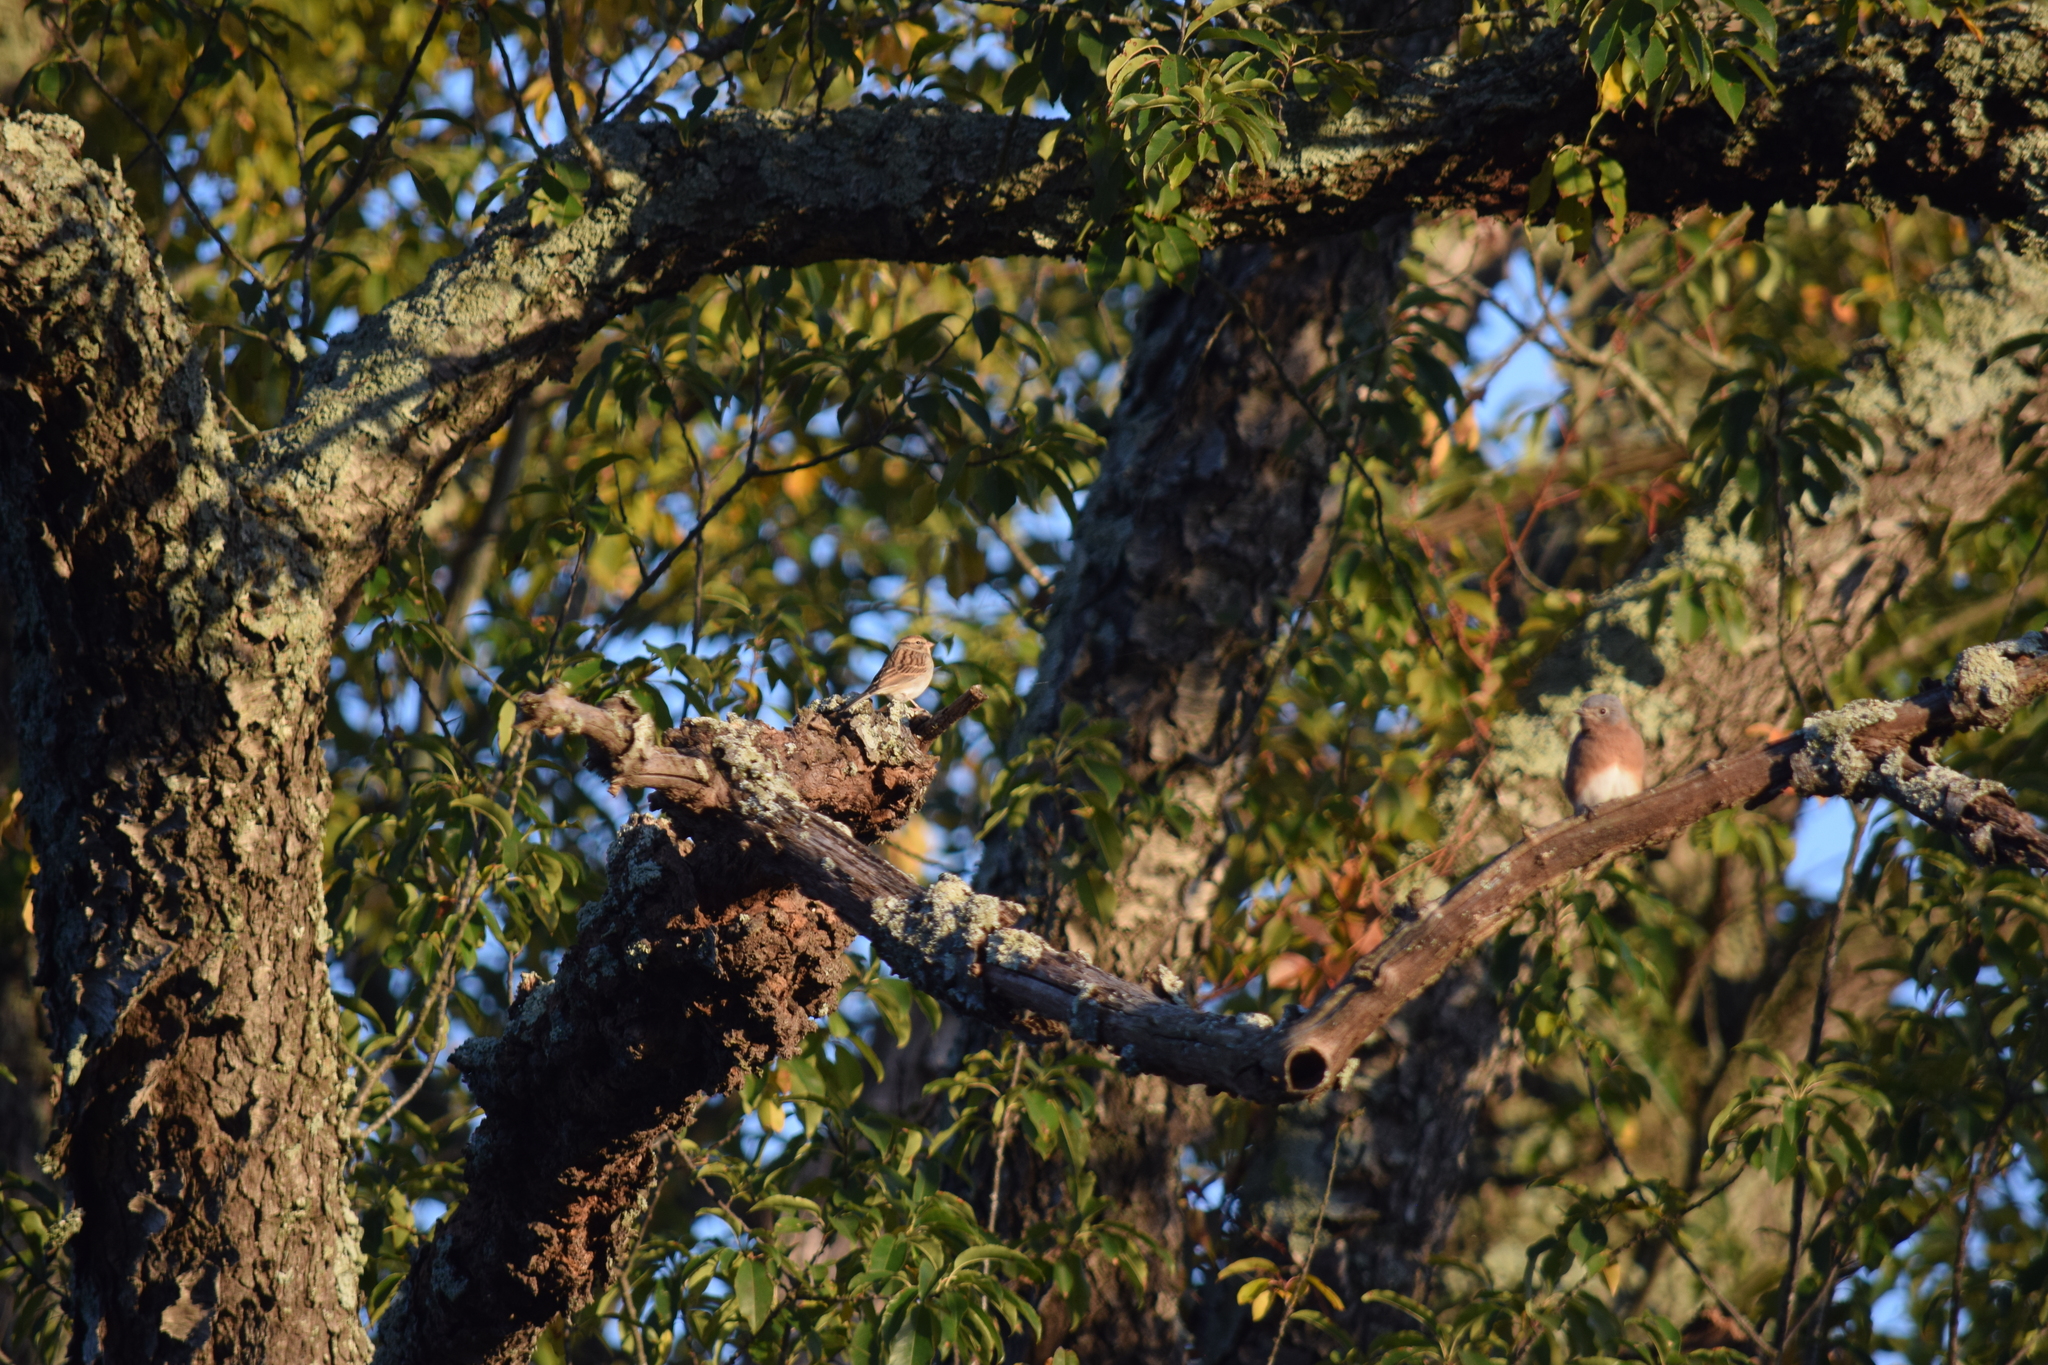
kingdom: Animalia
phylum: Chordata
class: Aves
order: Passeriformes
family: Turdidae
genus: Sialia
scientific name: Sialia sialis
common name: Eastern bluebird
